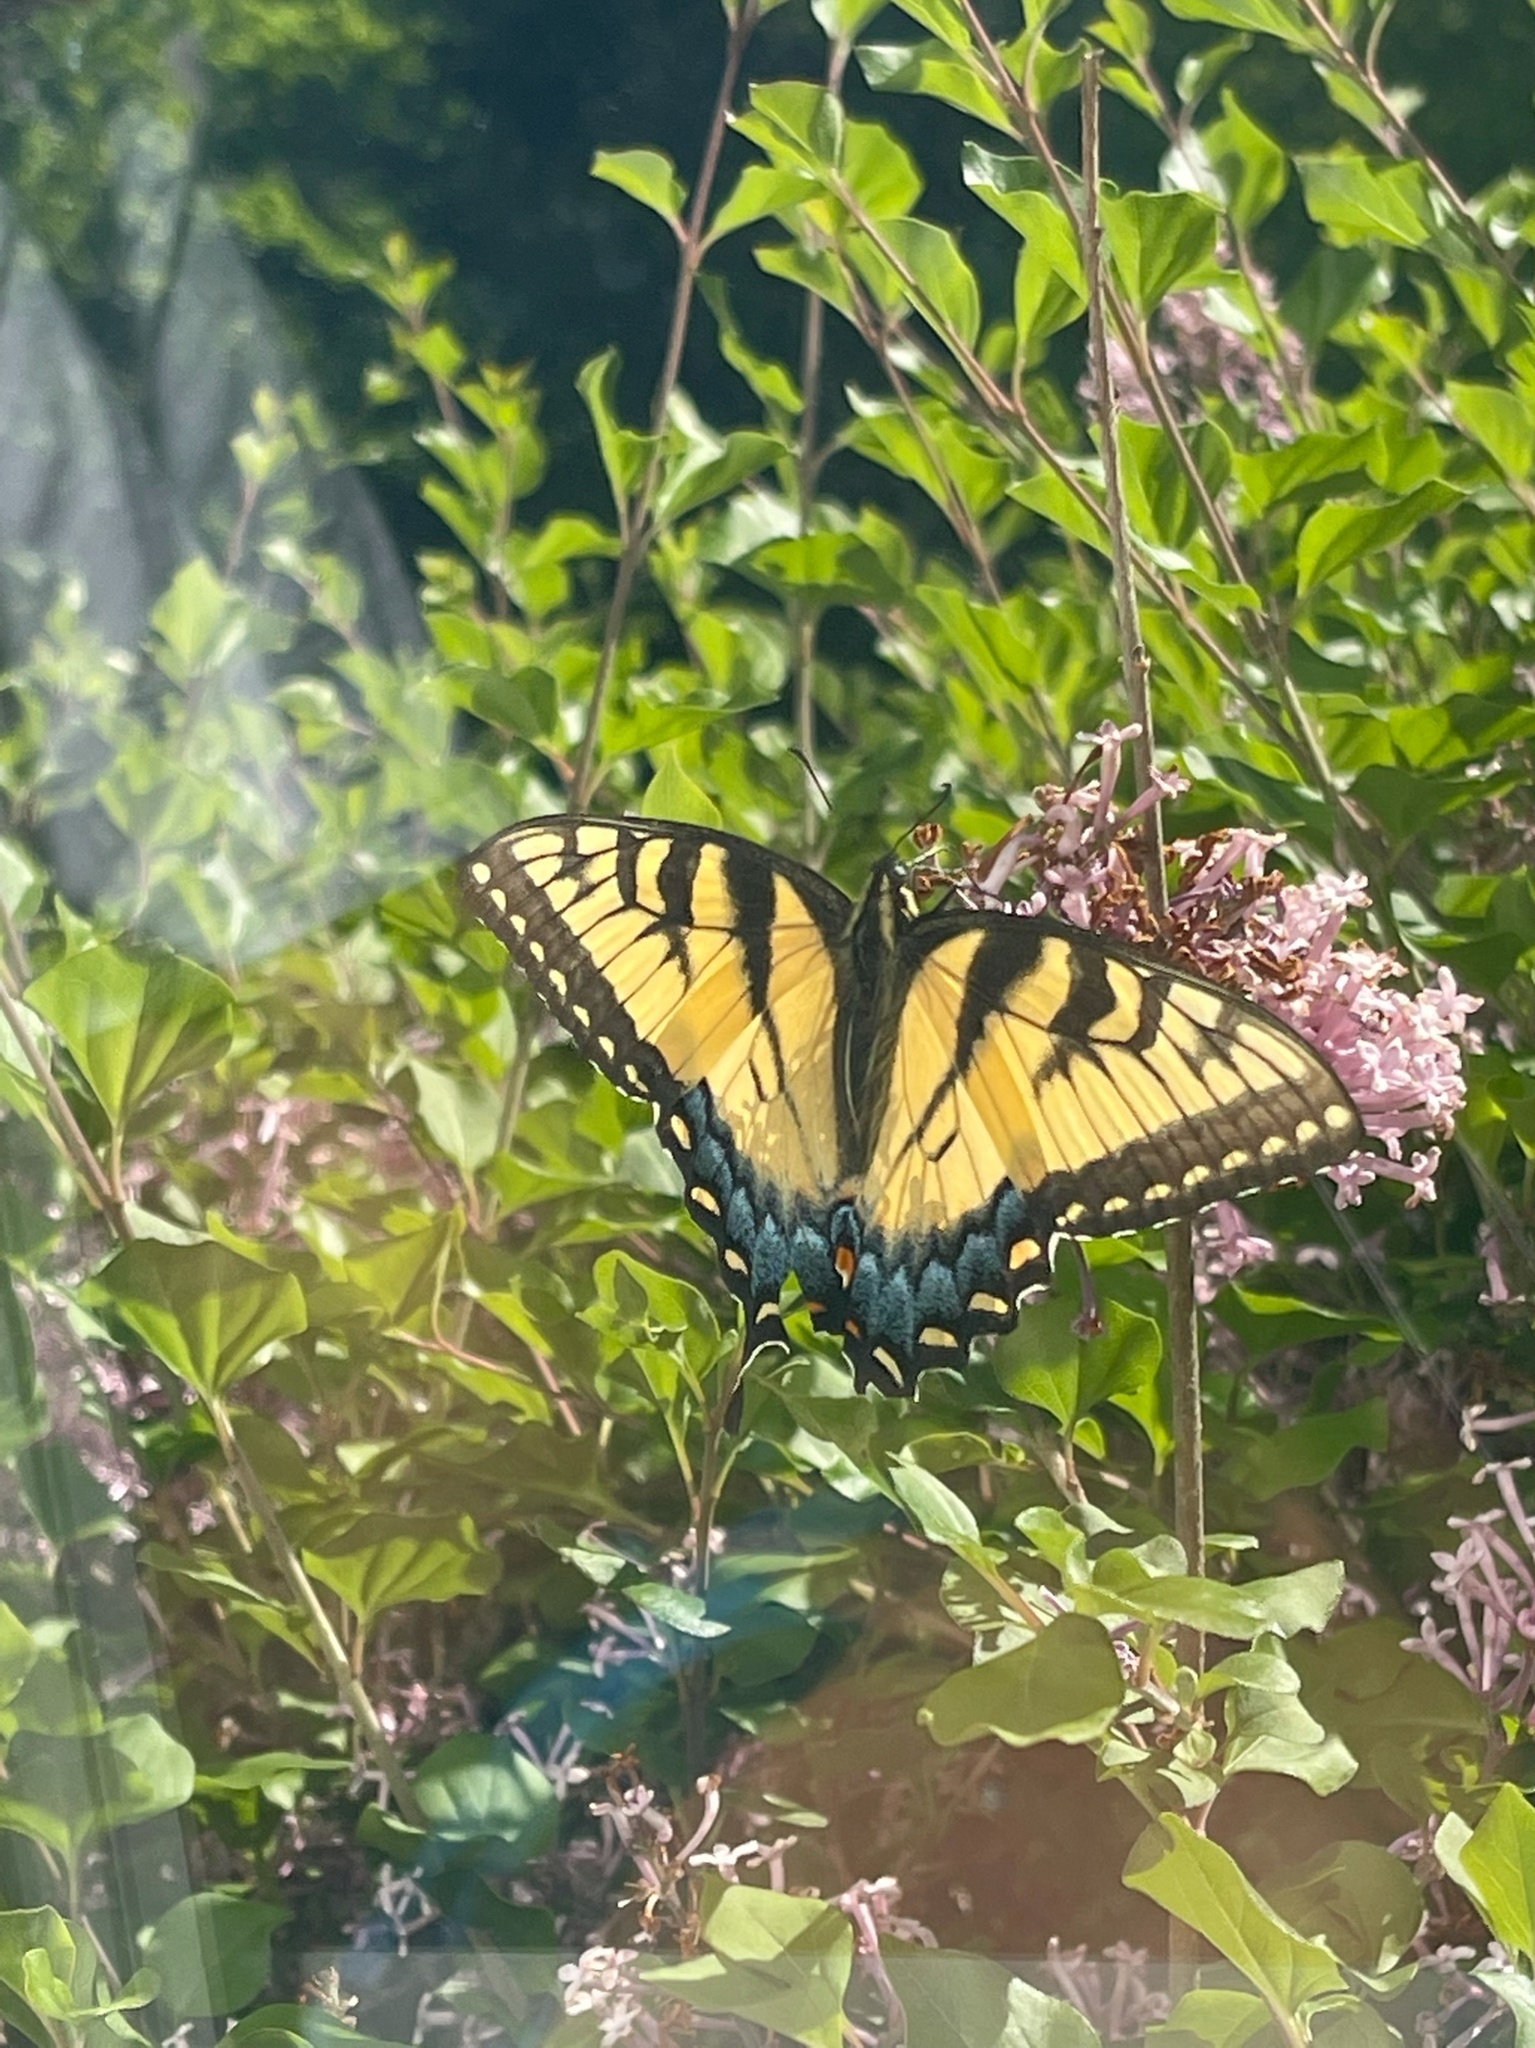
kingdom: Animalia
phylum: Arthropoda
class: Insecta
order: Lepidoptera
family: Papilionidae
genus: Papilio
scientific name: Papilio glaucus
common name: Tiger swallowtail
